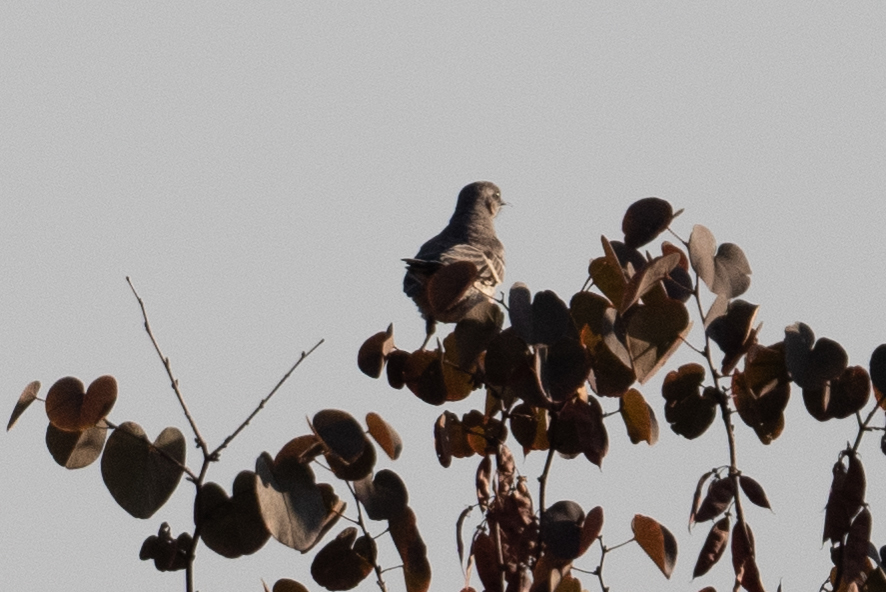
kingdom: Animalia
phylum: Chordata
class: Aves
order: Passeriformes
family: Mimidae
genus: Mimus
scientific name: Mimus polyglottos
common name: Northern mockingbird
